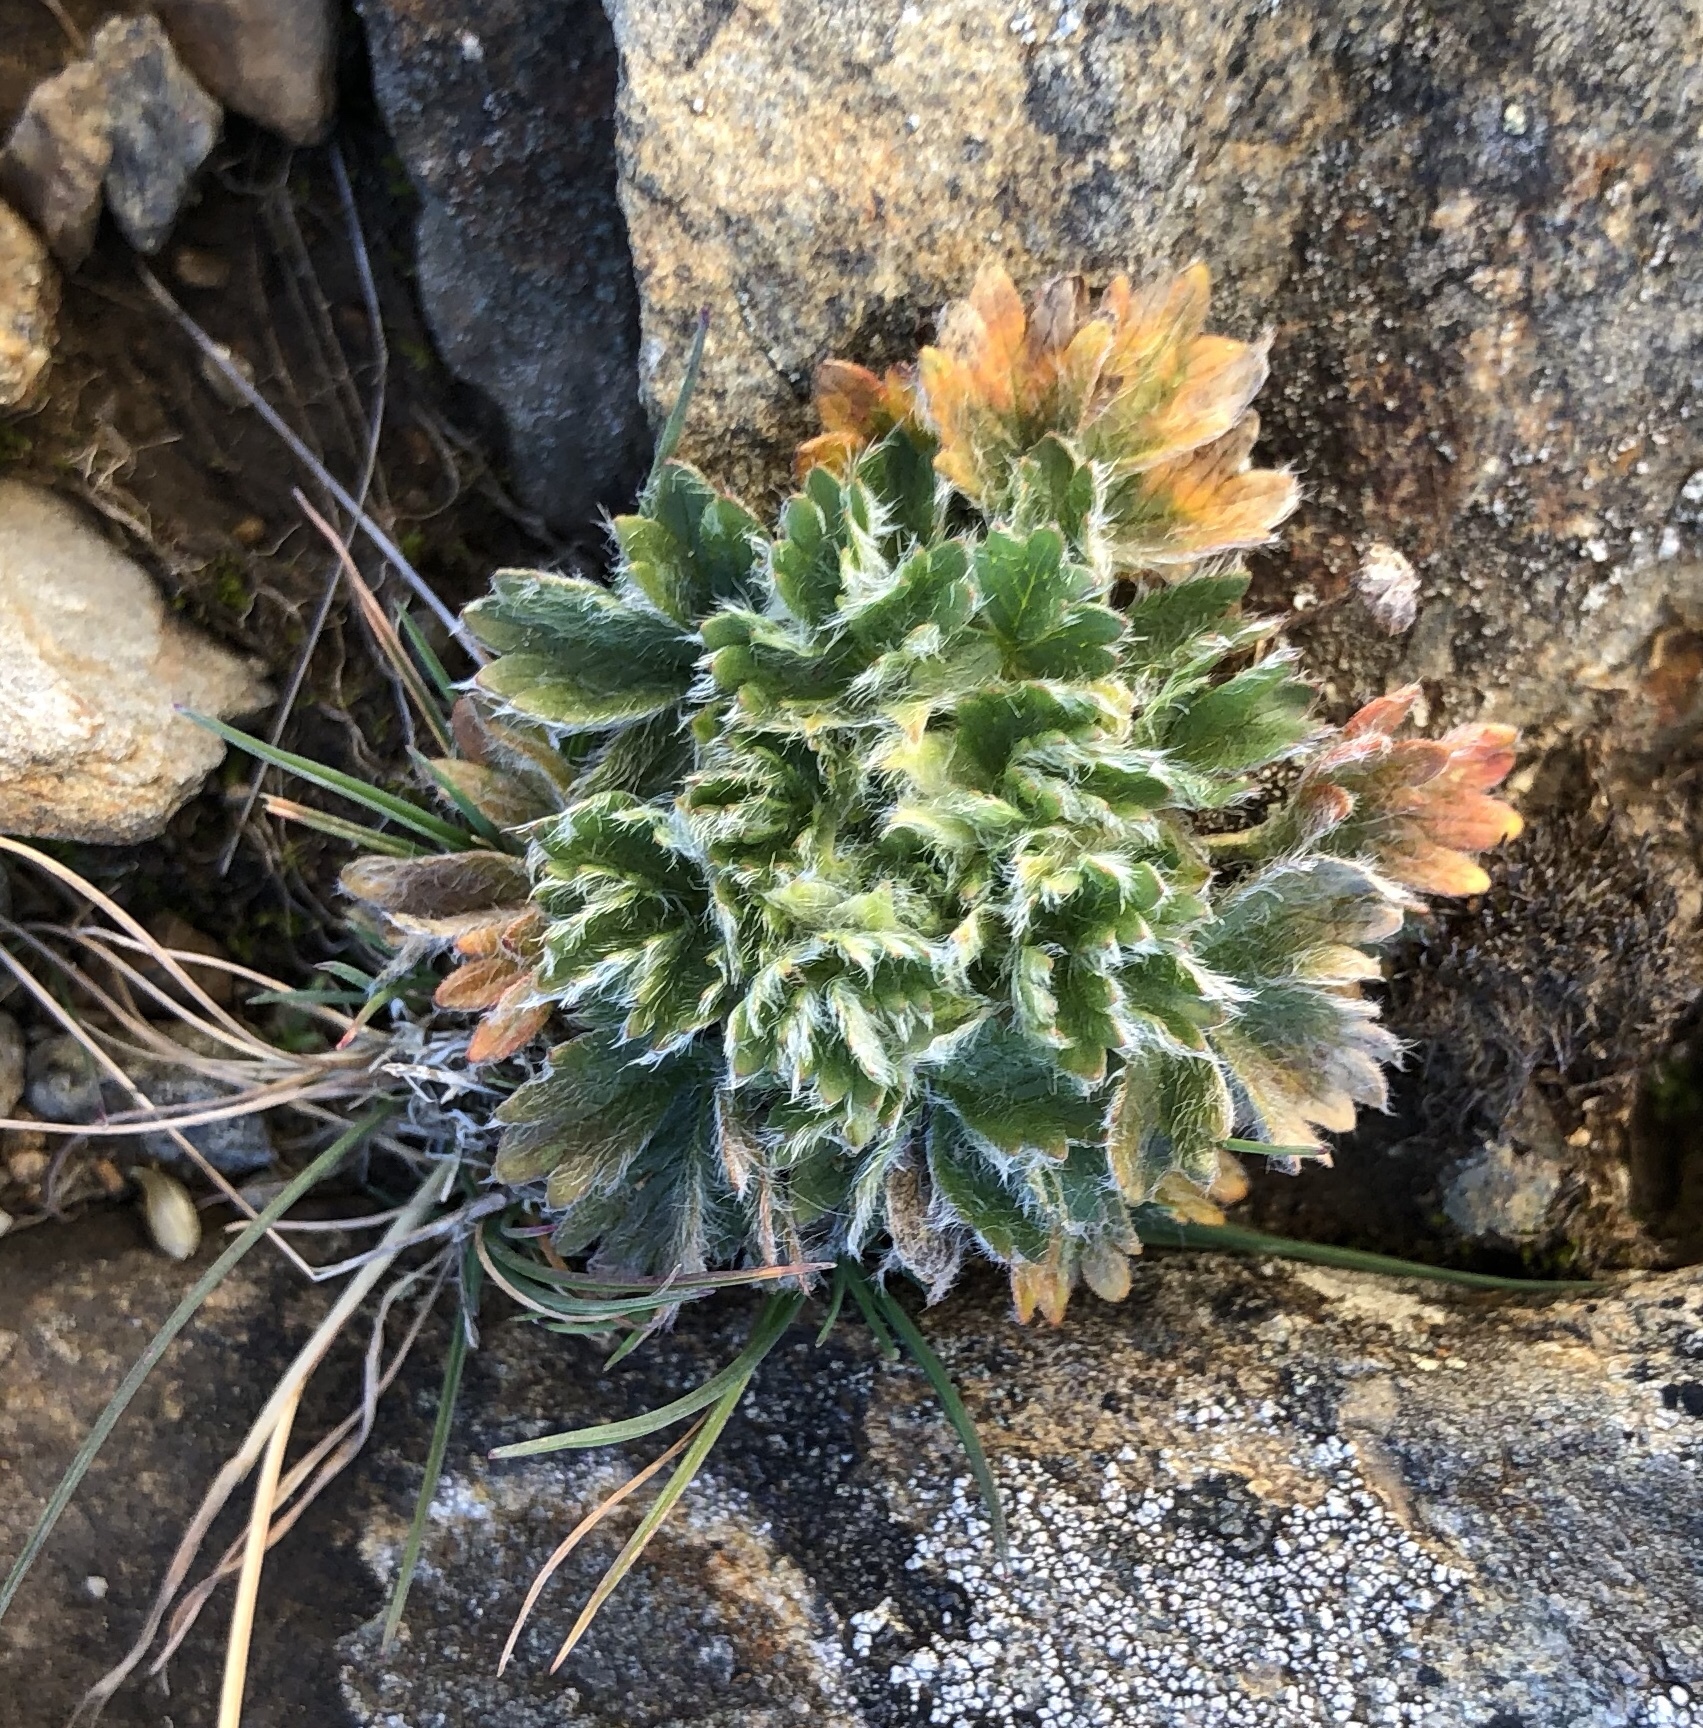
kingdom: Plantae
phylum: Tracheophyta
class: Magnoliopsida
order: Rosales
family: Rosaceae
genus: Potentilla
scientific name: Potentilla robbinsiana
